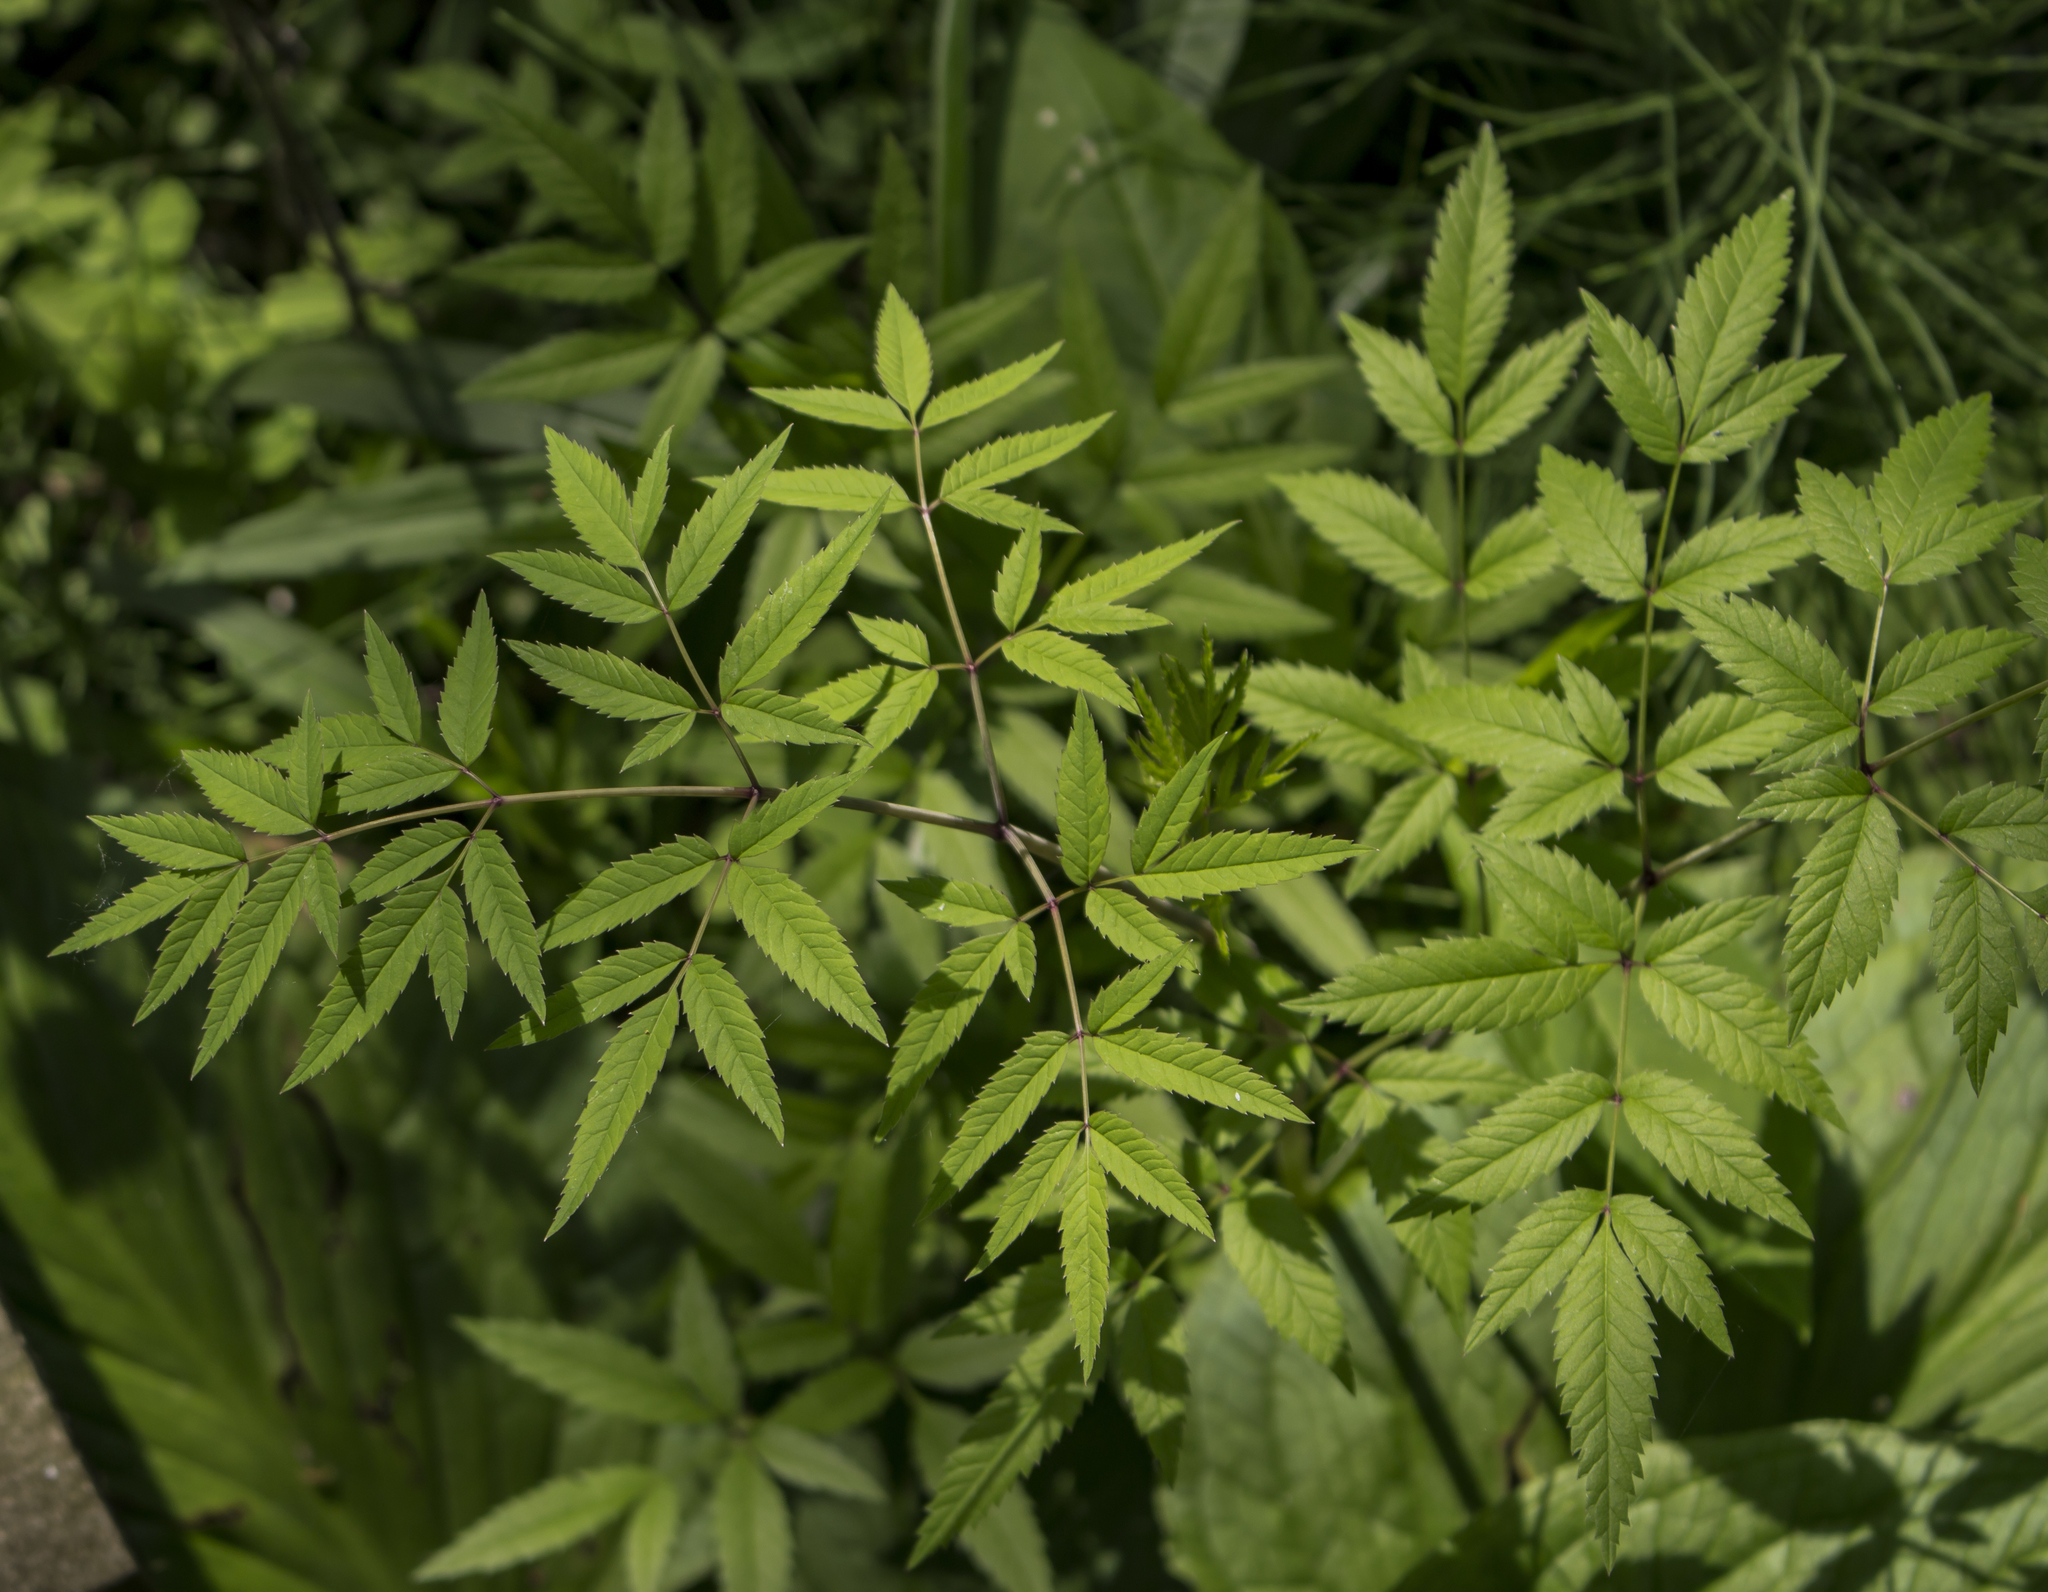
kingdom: Plantae
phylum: Tracheophyta
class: Magnoliopsida
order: Apiales
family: Apiaceae
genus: Cicuta
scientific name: Cicuta maculata
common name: Spotted cowbane
